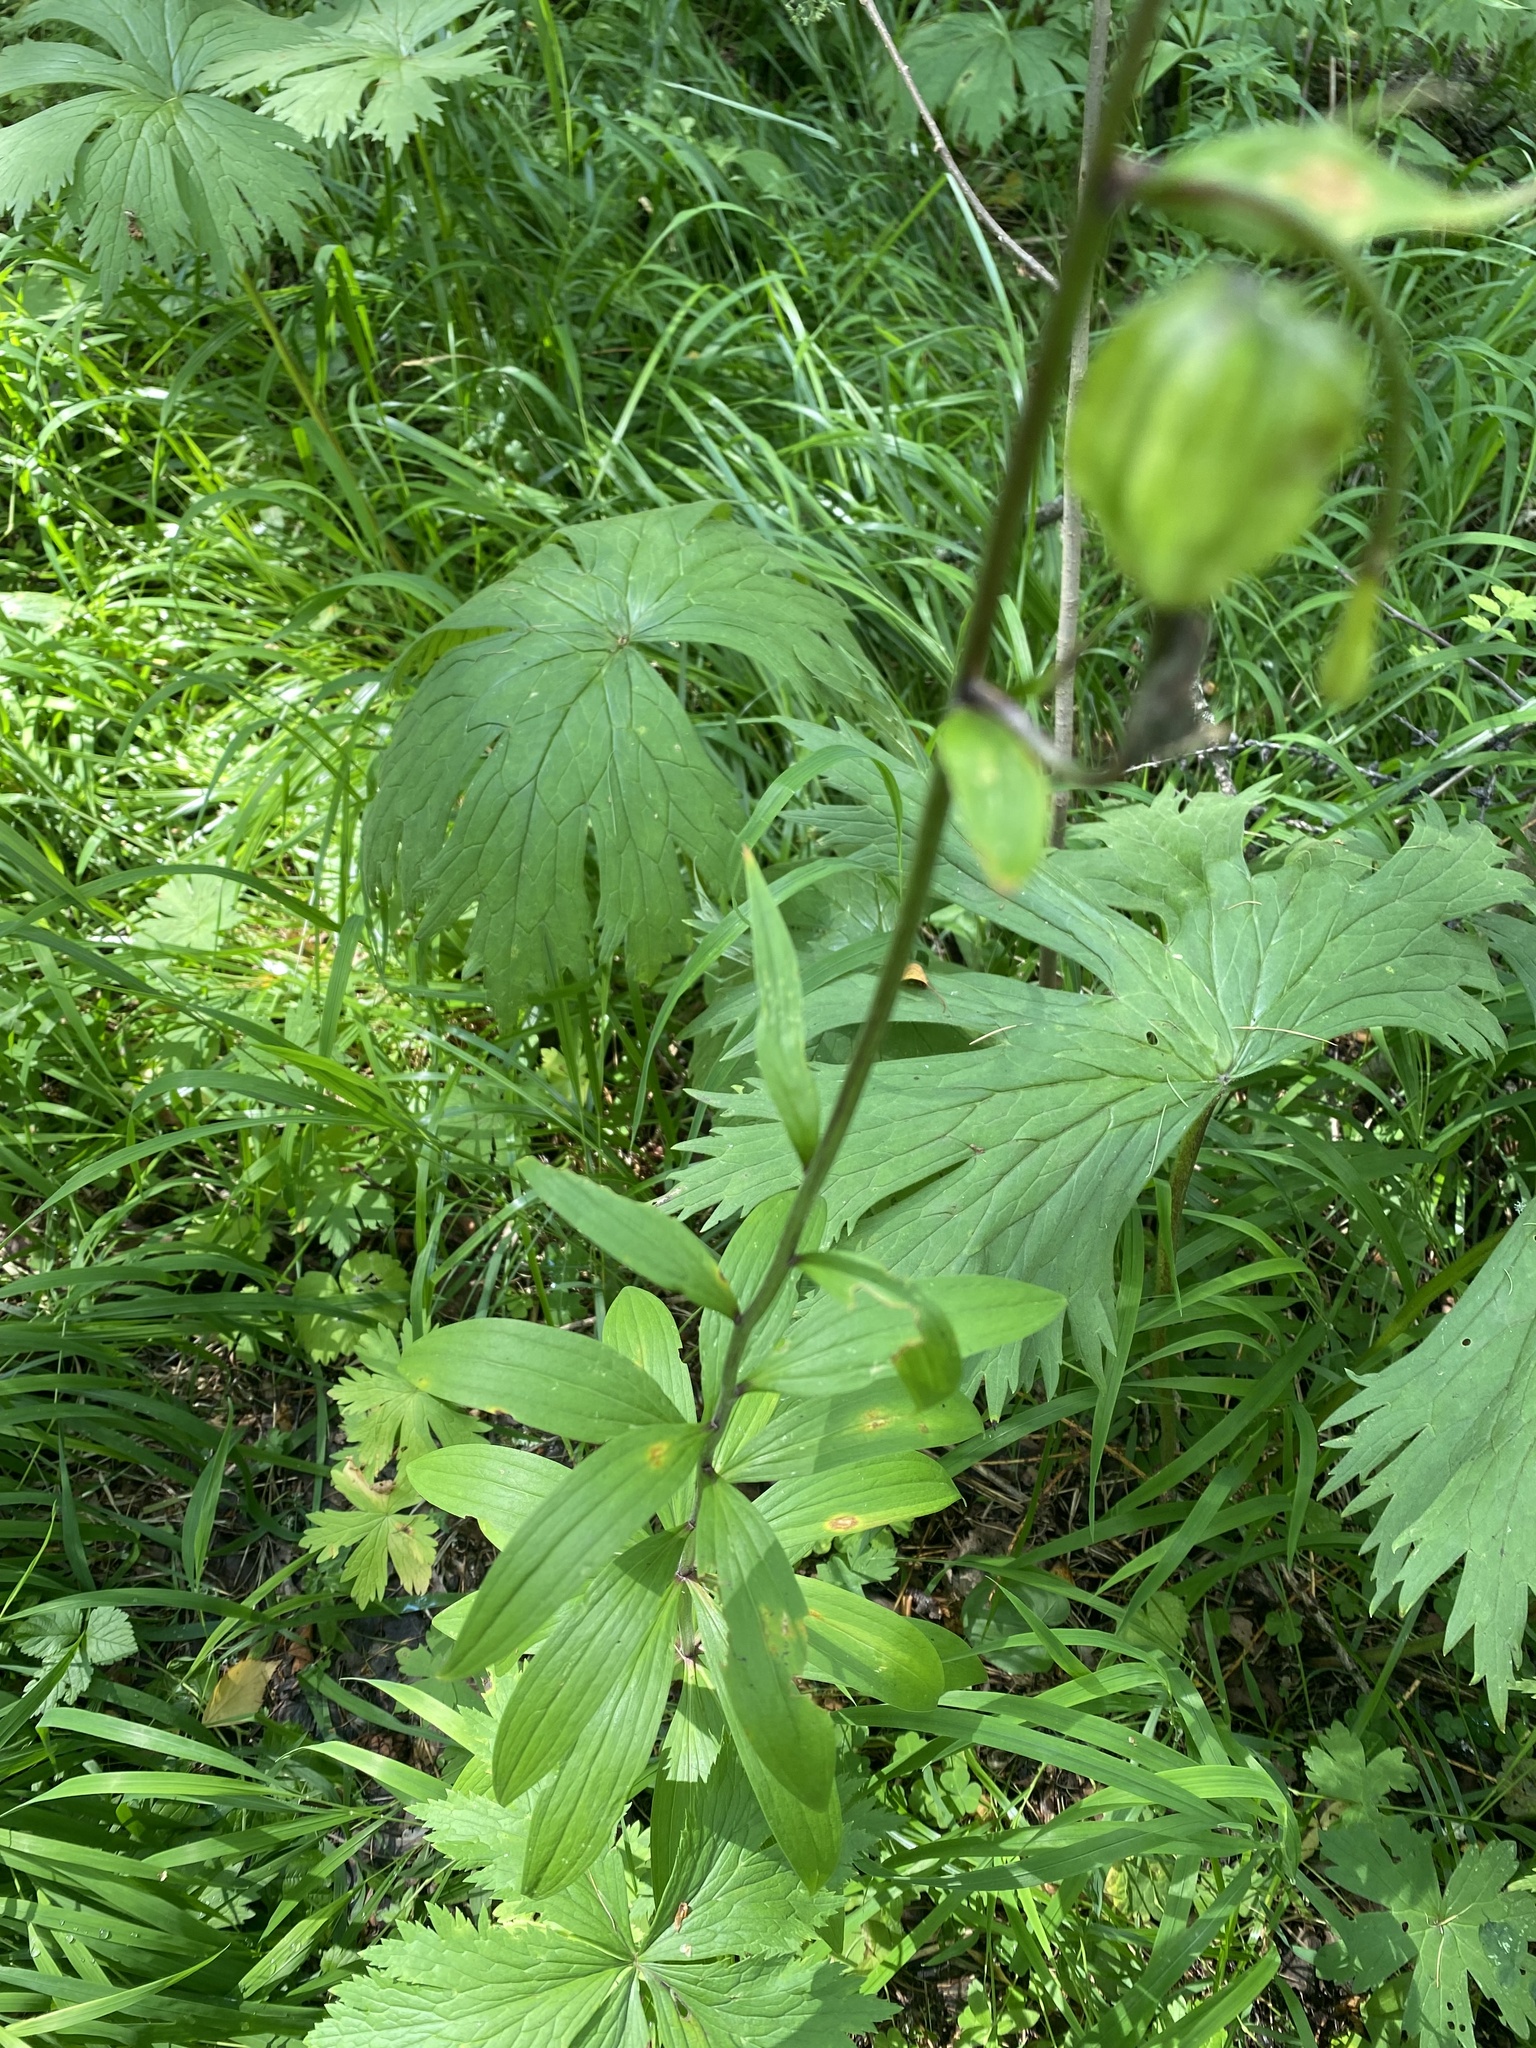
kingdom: Plantae
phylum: Tracheophyta
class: Liliopsida
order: Liliales
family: Liliaceae
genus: Lilium
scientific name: Lilium martagon
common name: Martagon lily
